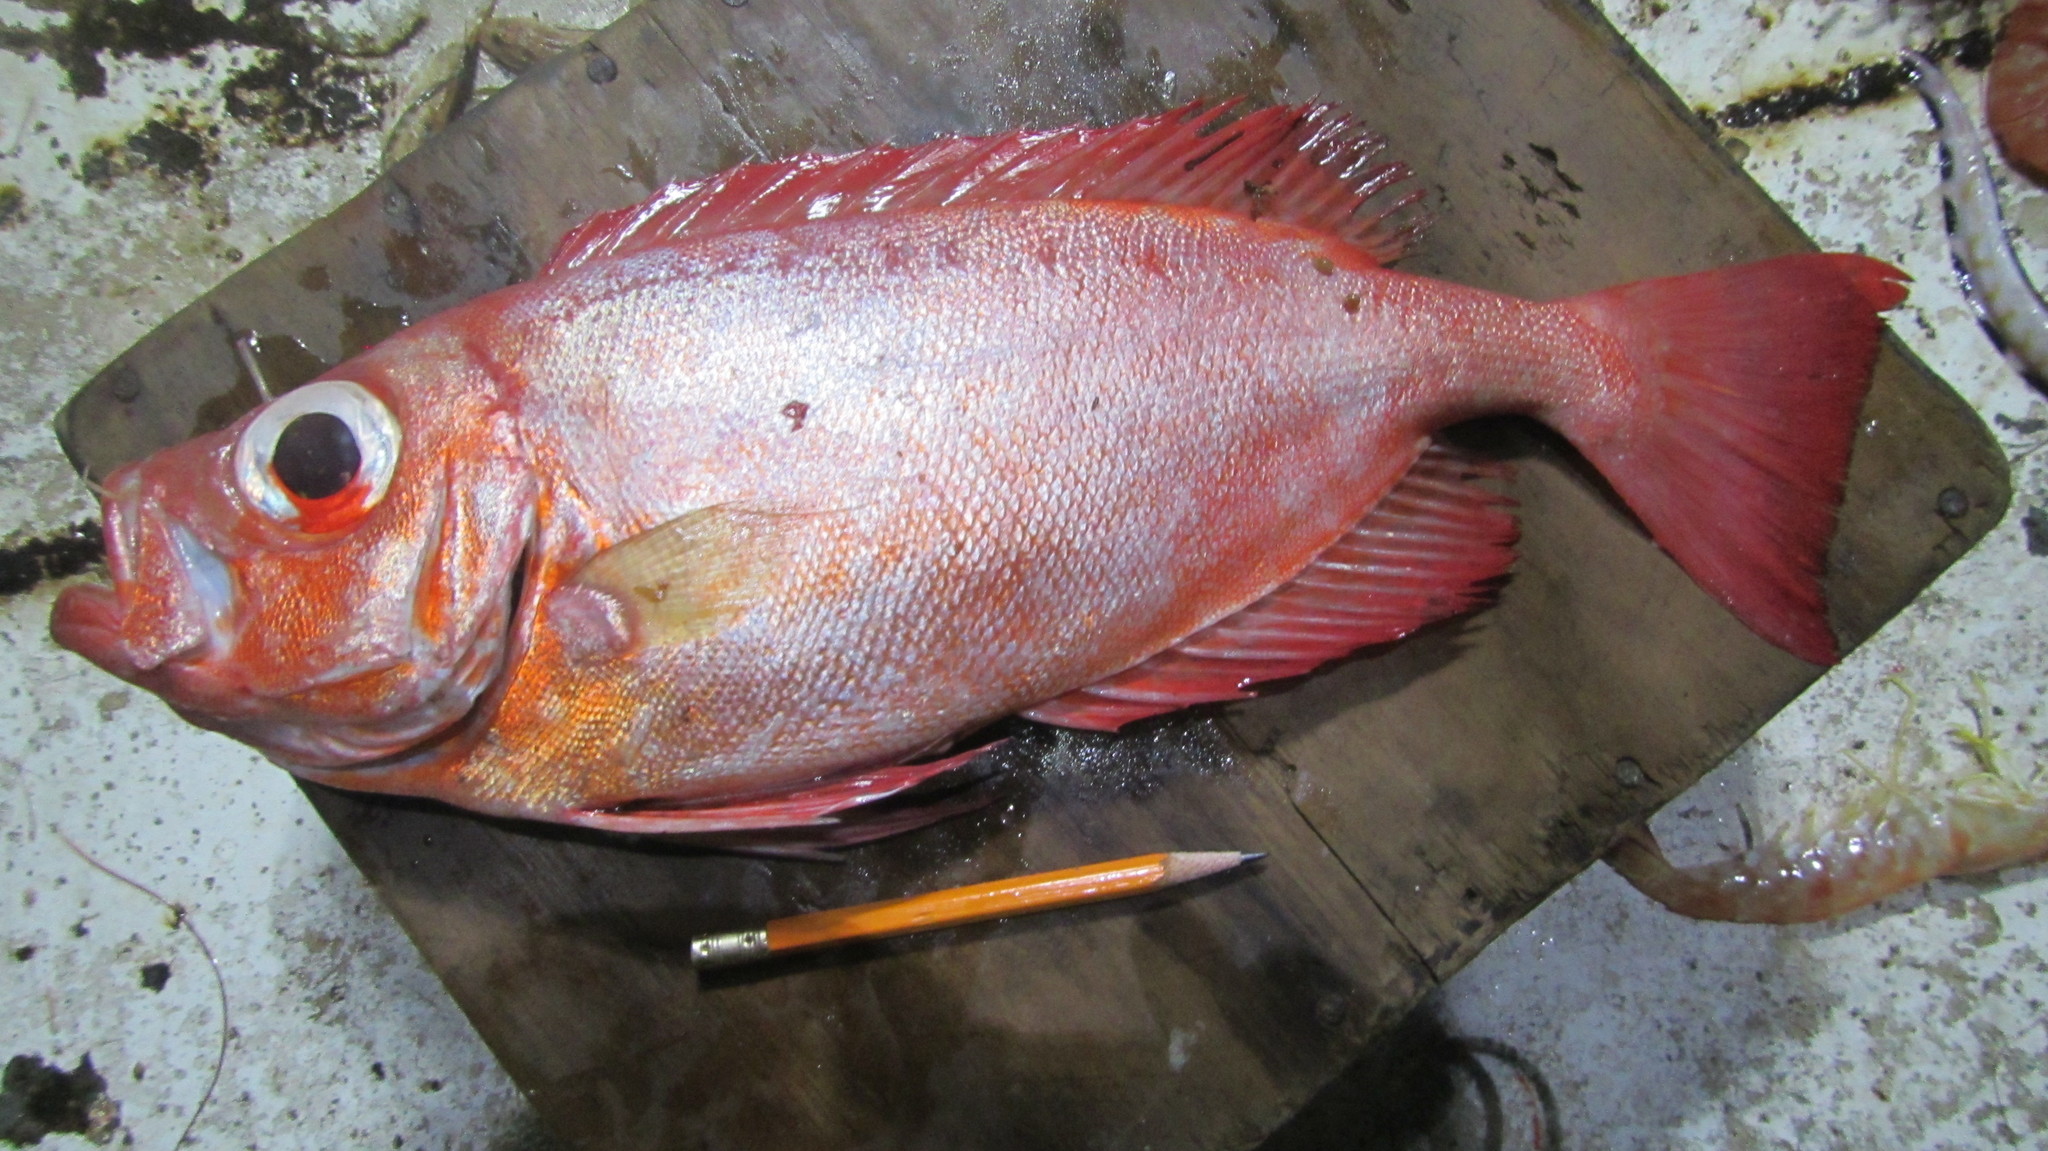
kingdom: Animalia
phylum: Chordata
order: Perciformes
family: Priacanthidae
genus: Priacanthus
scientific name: Priacanthus arenatus
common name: Atlantic bigeye
